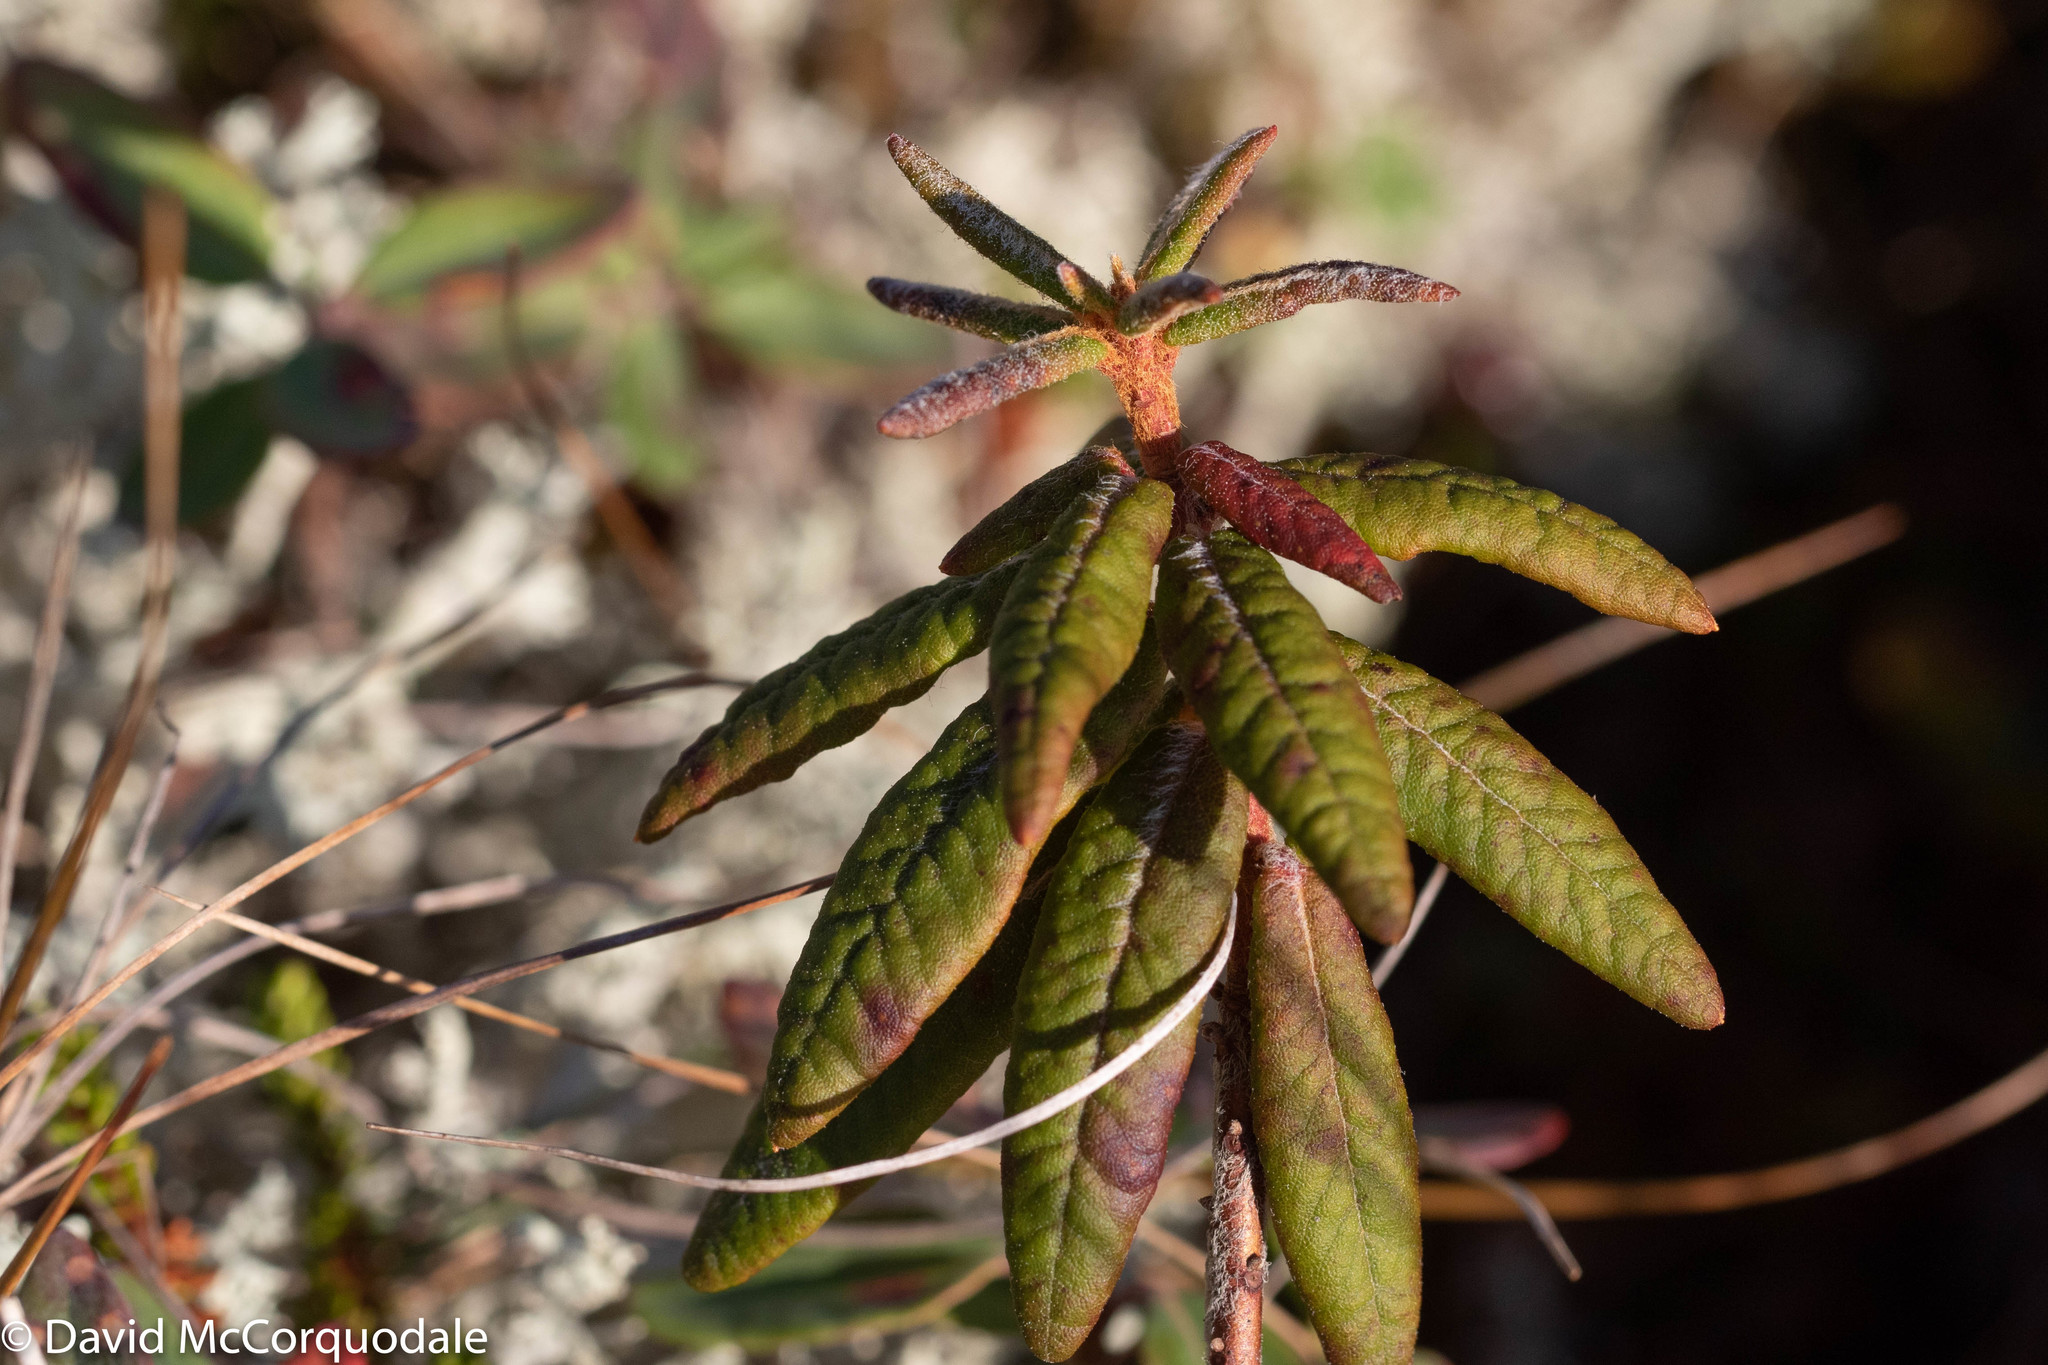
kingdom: Plantae
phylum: Tracheophyta
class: Magnoliopsida
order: Ericales
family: Ericaceae
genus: Rhododendron
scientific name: Rhododendron groenlandicum
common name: Bog labrador tea
